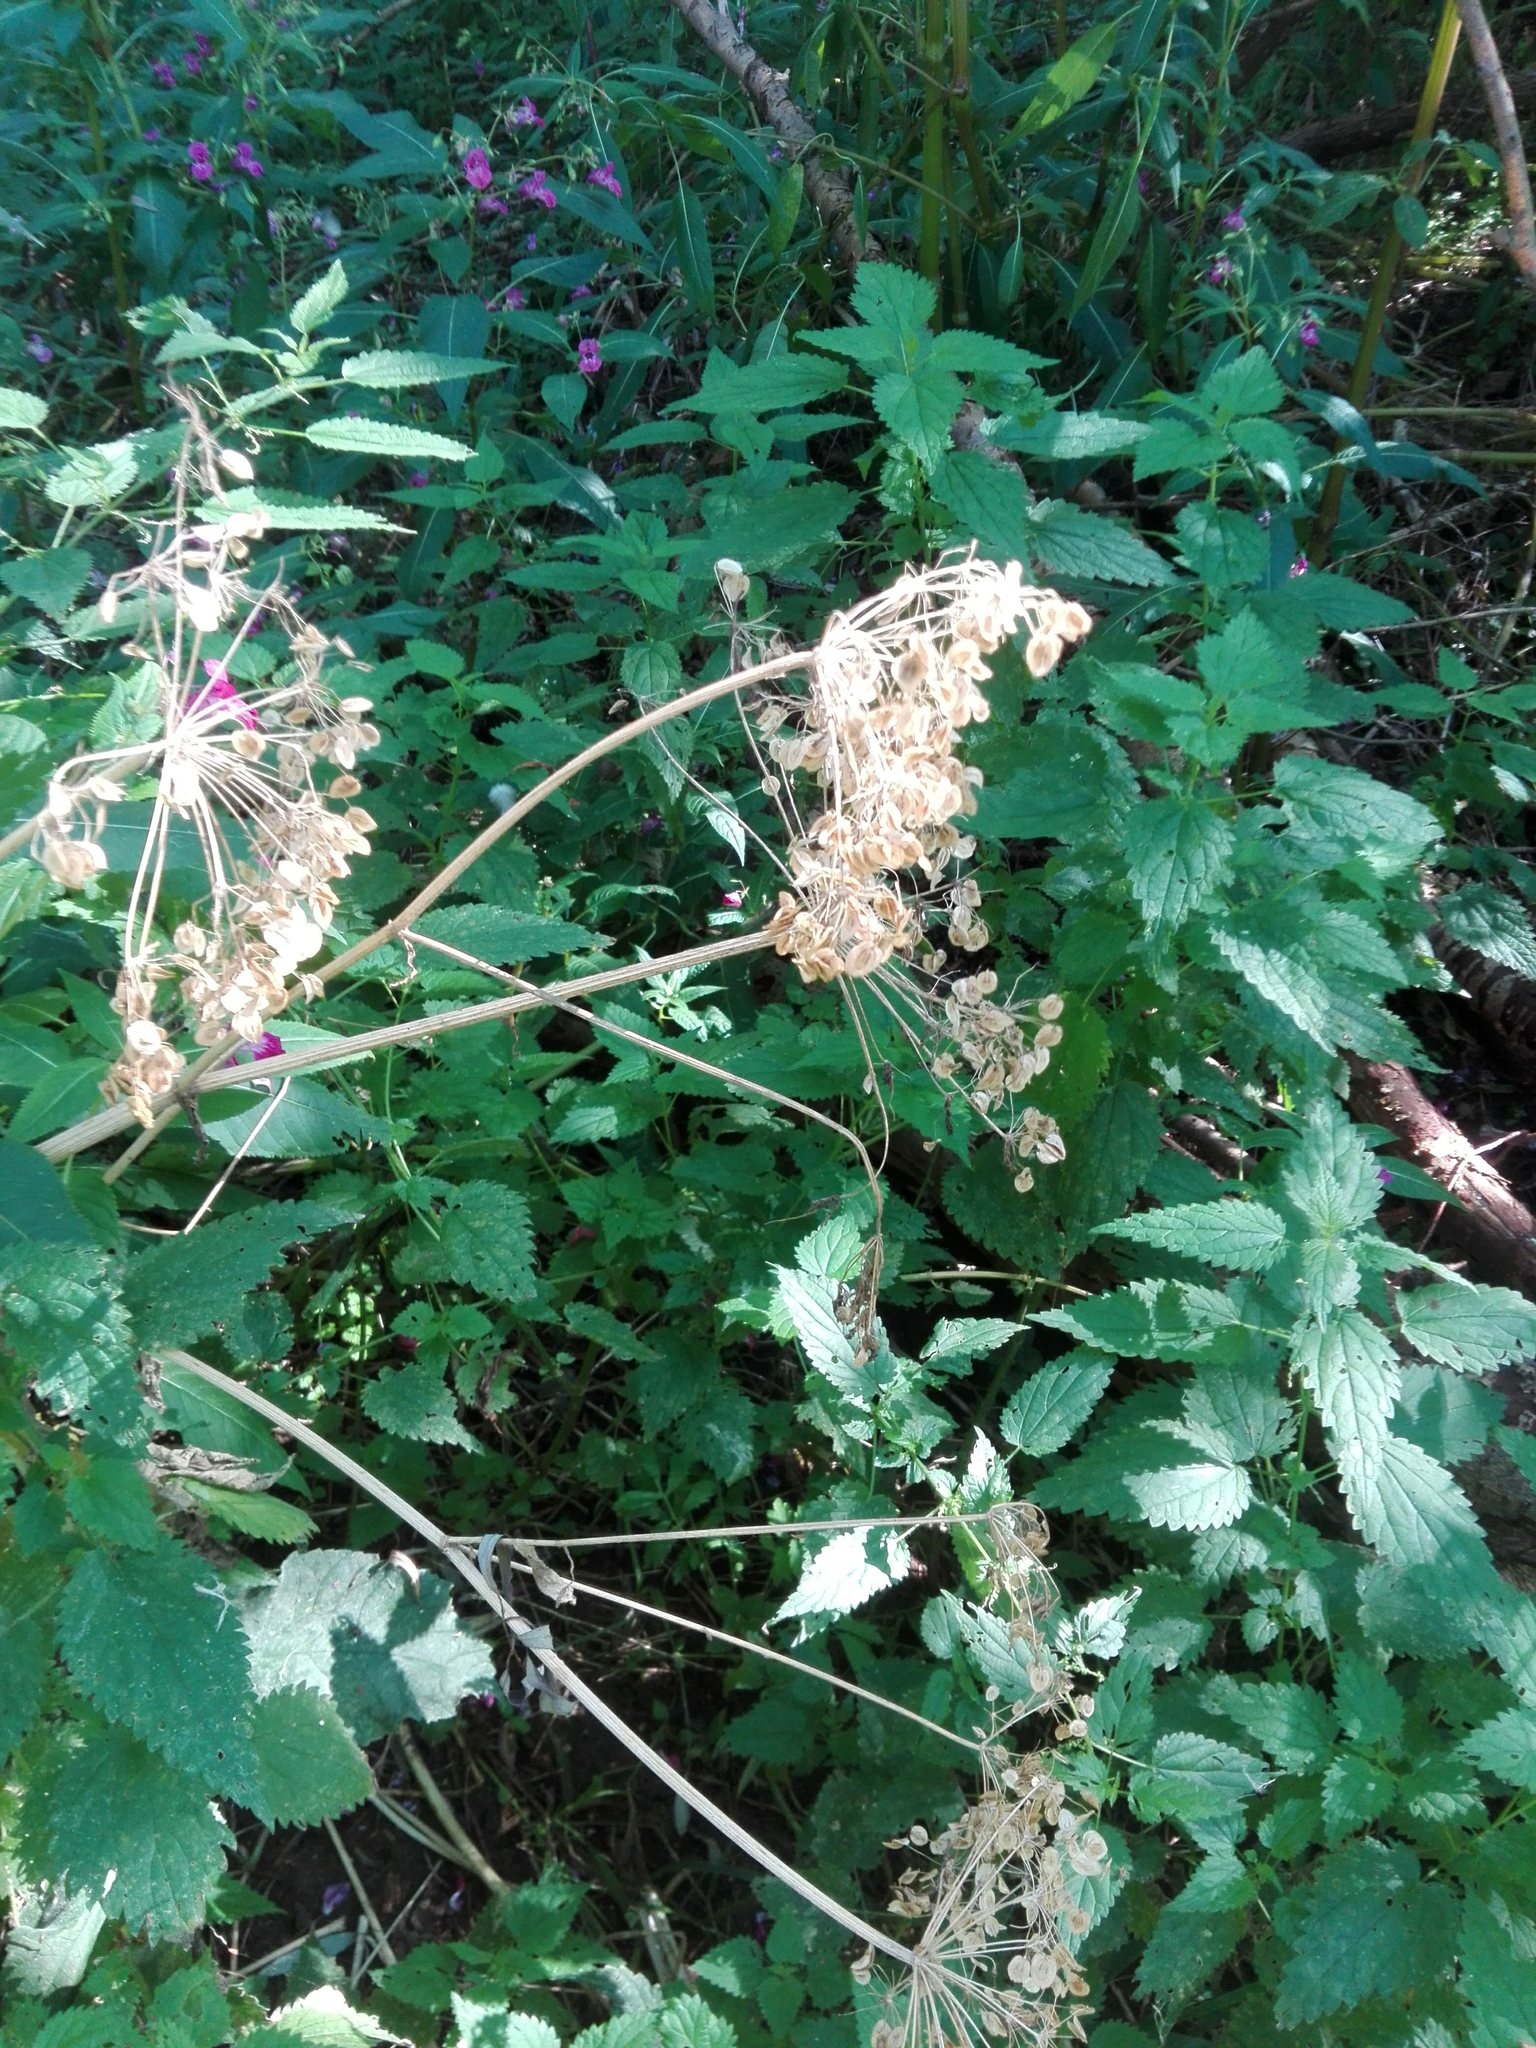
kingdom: Plantae
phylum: Tracheophyta
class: Magnoliopsida
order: Apiales
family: Apiaceae
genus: Heracleum
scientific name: Heracleum sphondylium
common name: Hogweed
